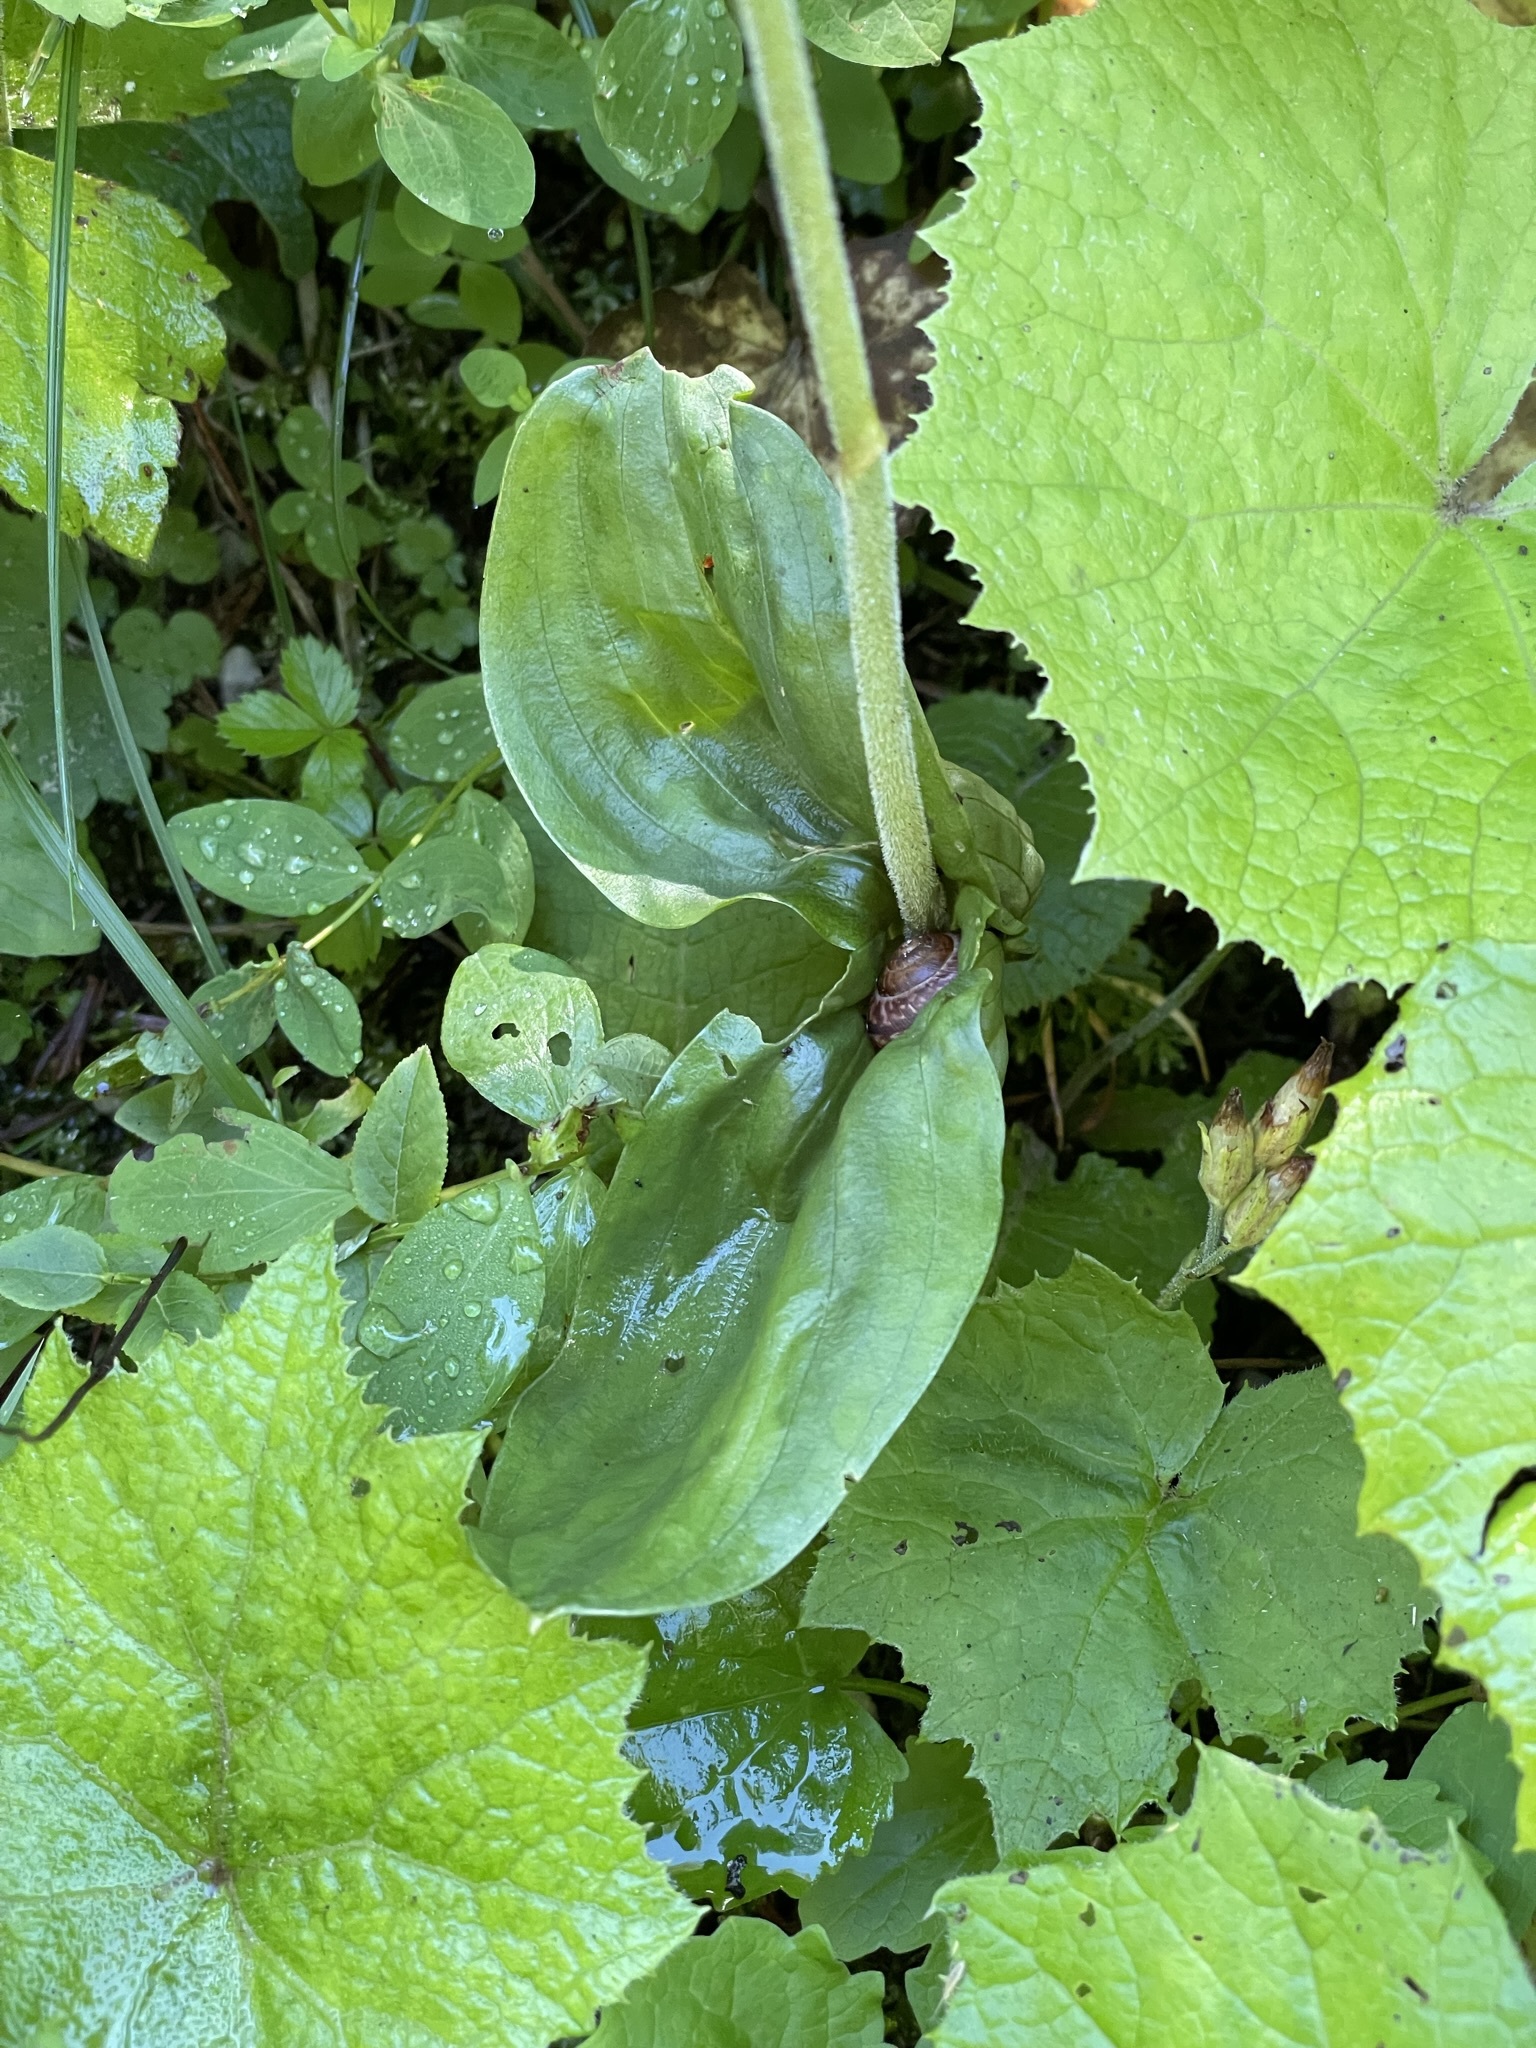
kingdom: Plantae
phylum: Tracheophyta
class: Liliopsida
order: Asparagales
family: Orchidaceae
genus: Neottia
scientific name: Neottia ovata
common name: Common twayblade
